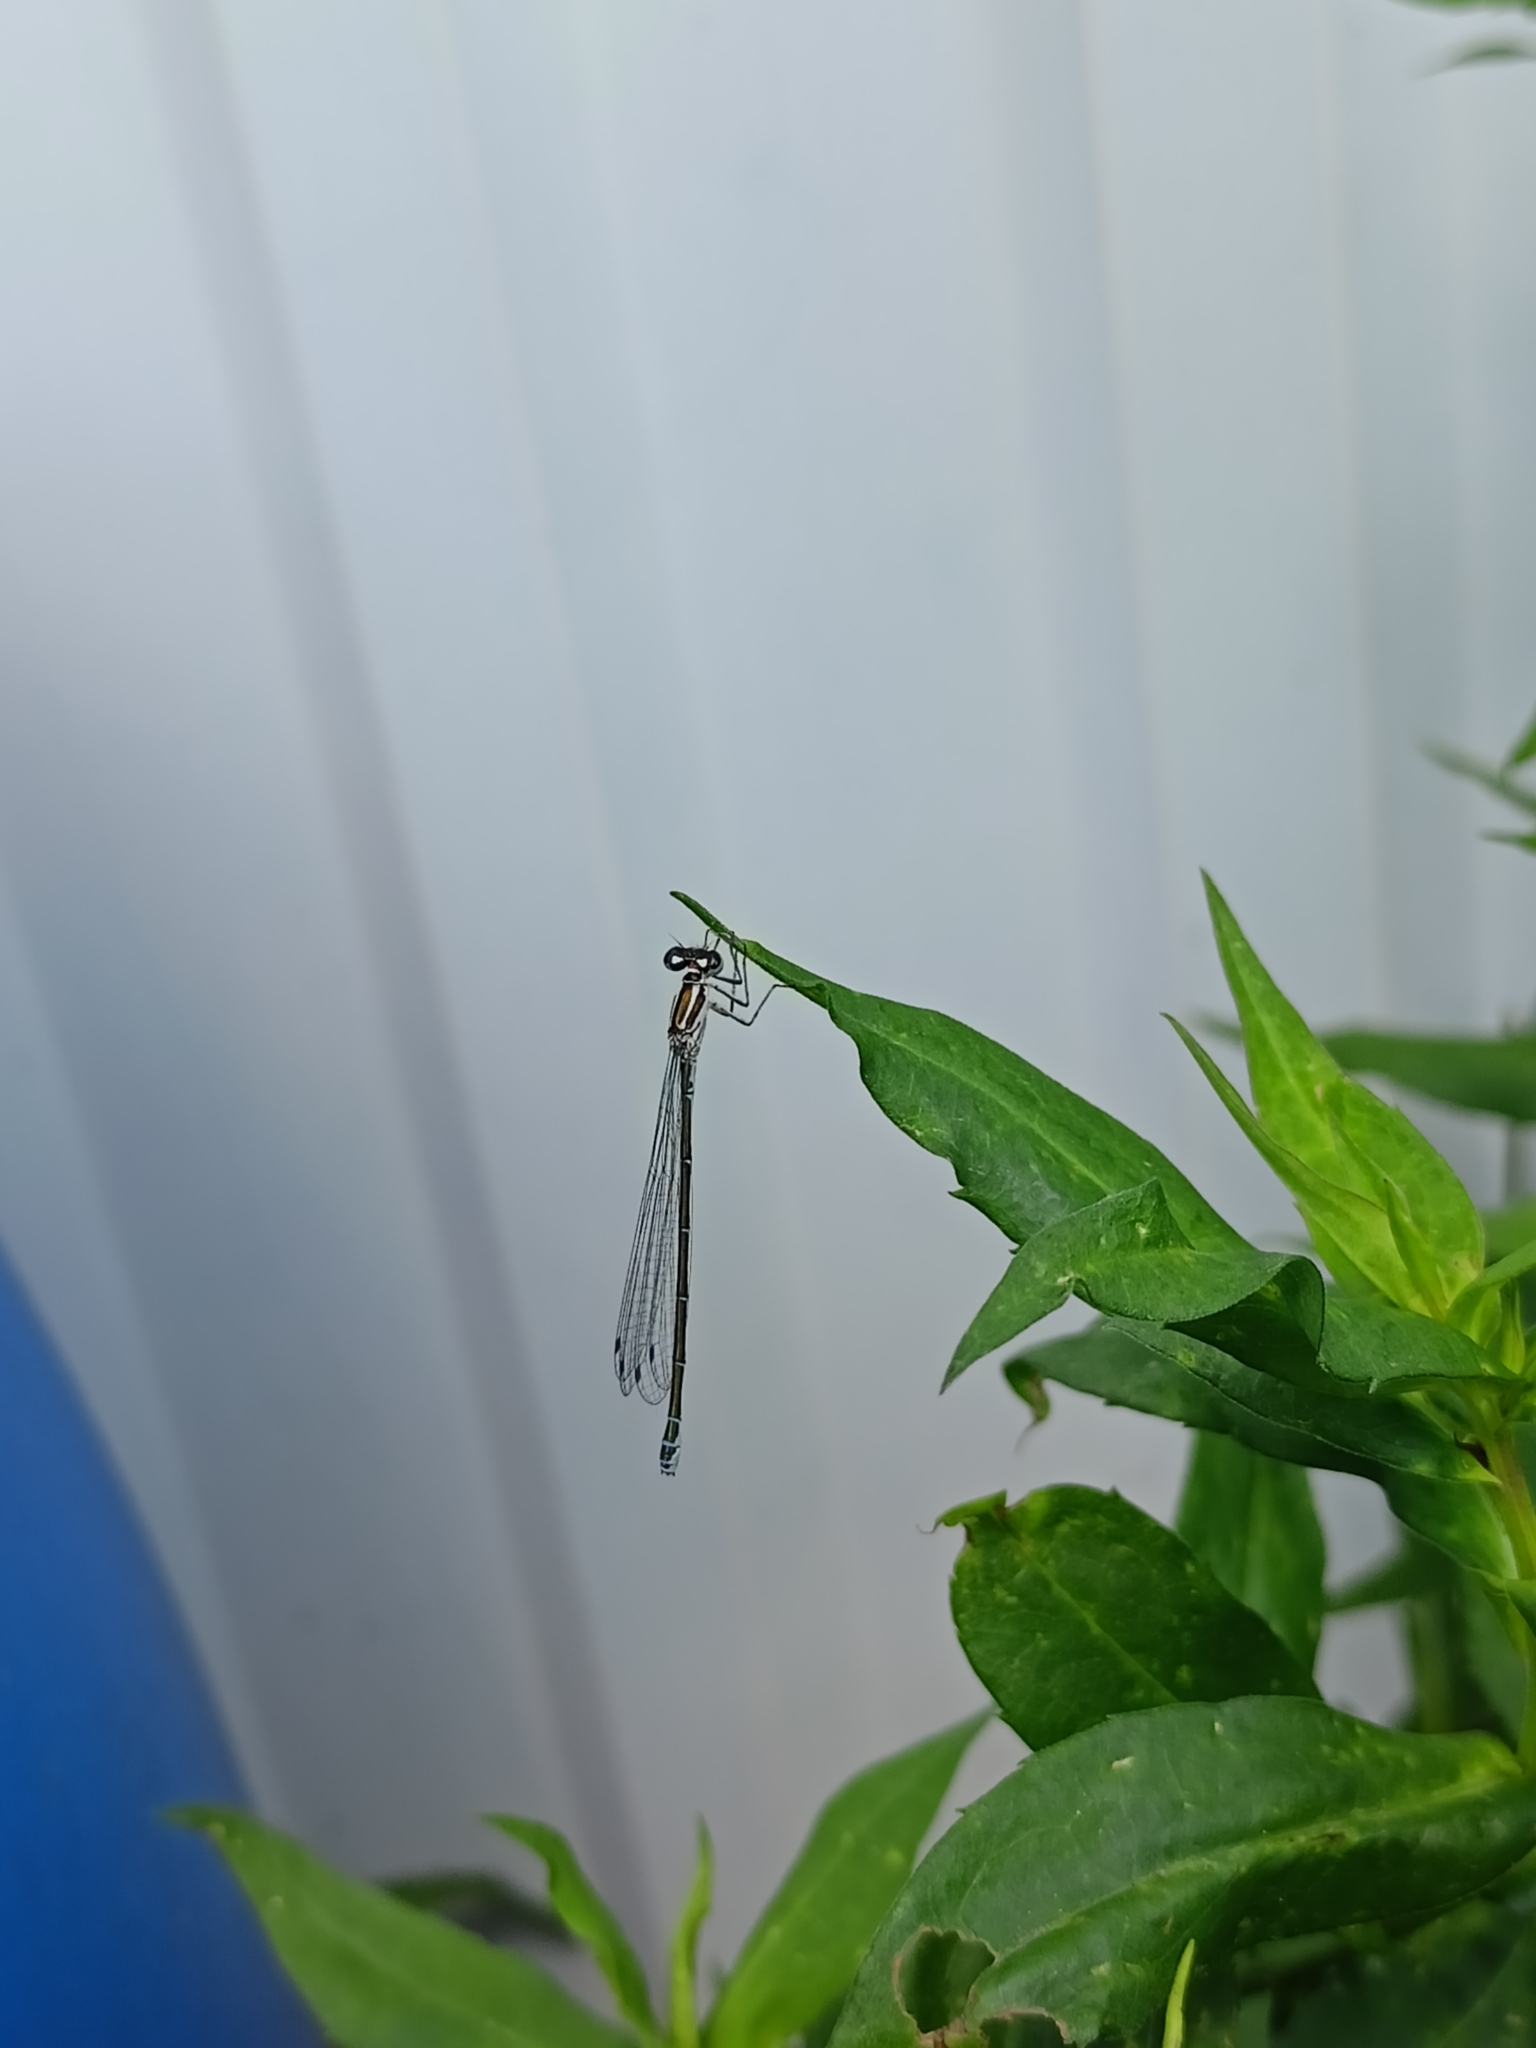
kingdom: Animalia
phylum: Arthropoda
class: Insecta
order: Odonata
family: Coenagrionidae
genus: Coenagrion
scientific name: Coenagrion puella
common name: Azure damselfly
